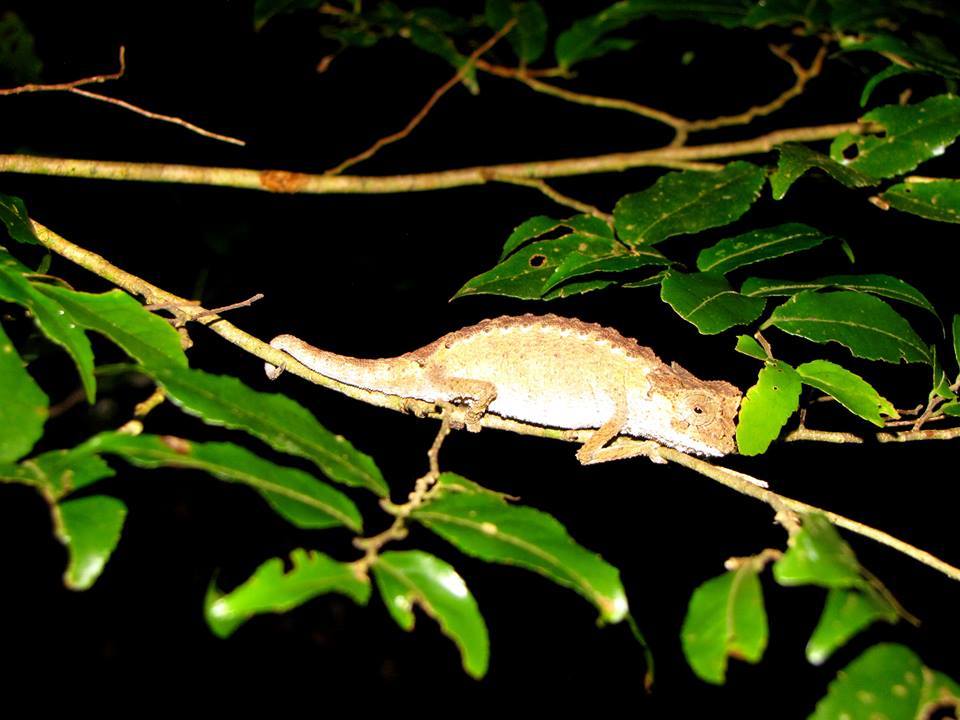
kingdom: Animalia
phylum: Chordata
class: Squamata
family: Chamaeleonidae
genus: Brookesia
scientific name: Brookesia antakarana
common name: Antakarana leaf chameleon
